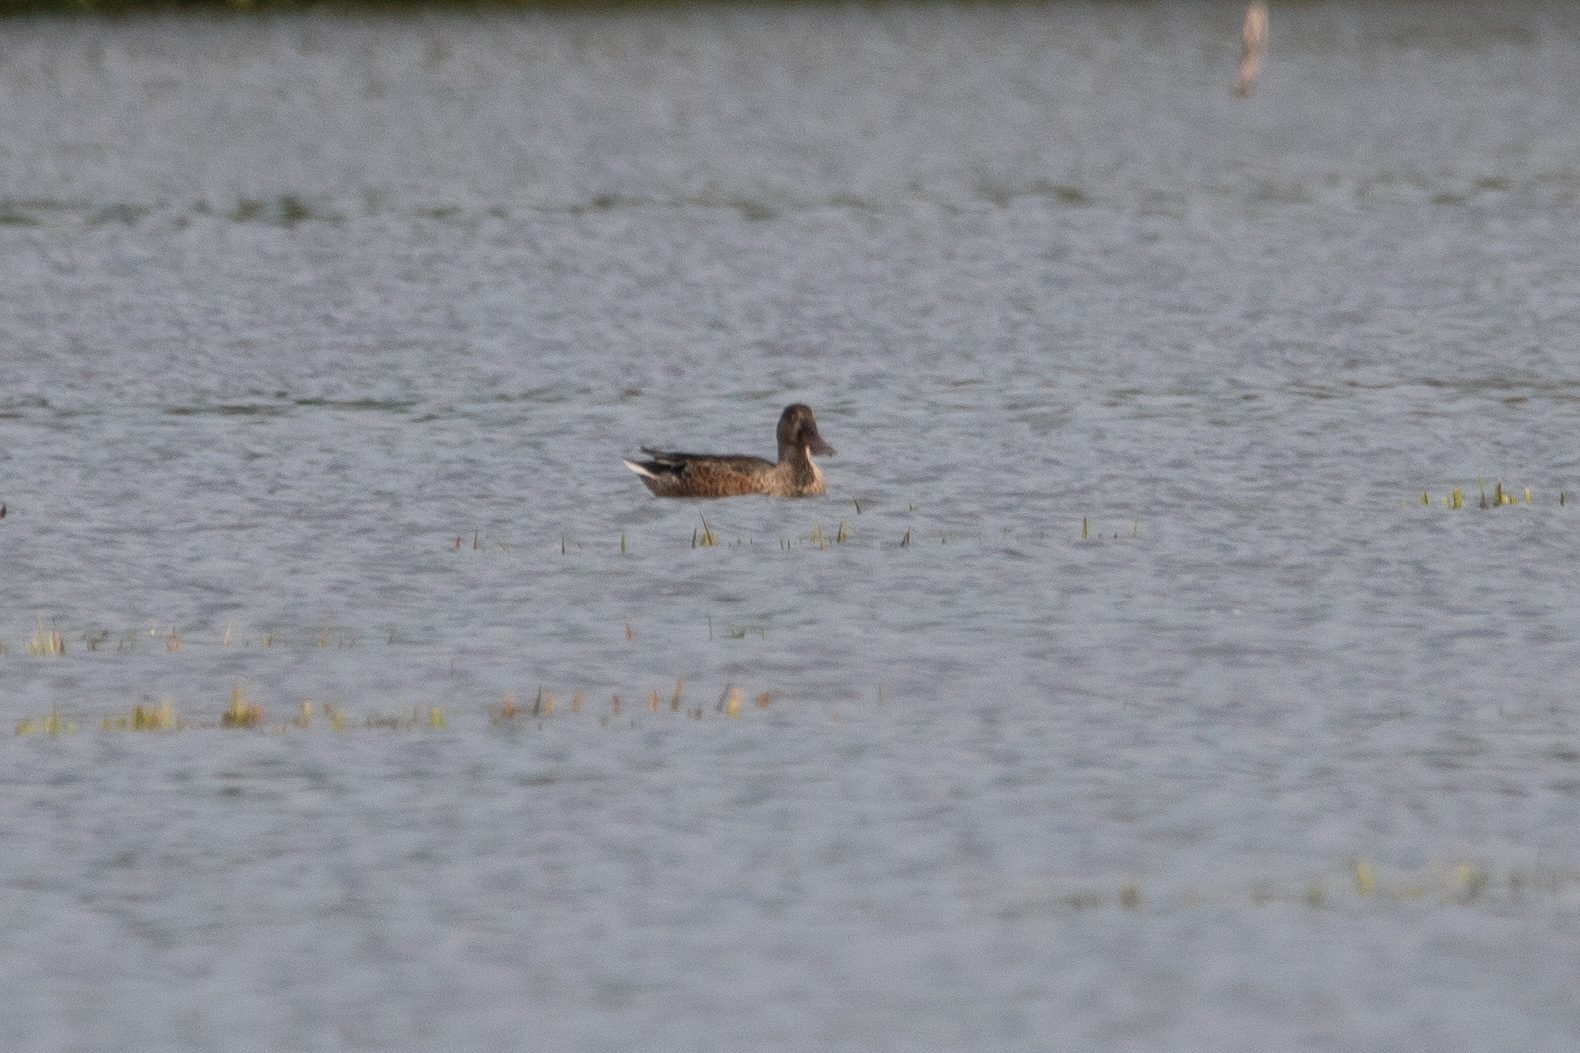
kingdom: Animalia
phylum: Chordata
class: Aves
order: Anseriformes
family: Anatidae
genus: Spatula
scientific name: Spatula clypeata
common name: Northern shoveler
